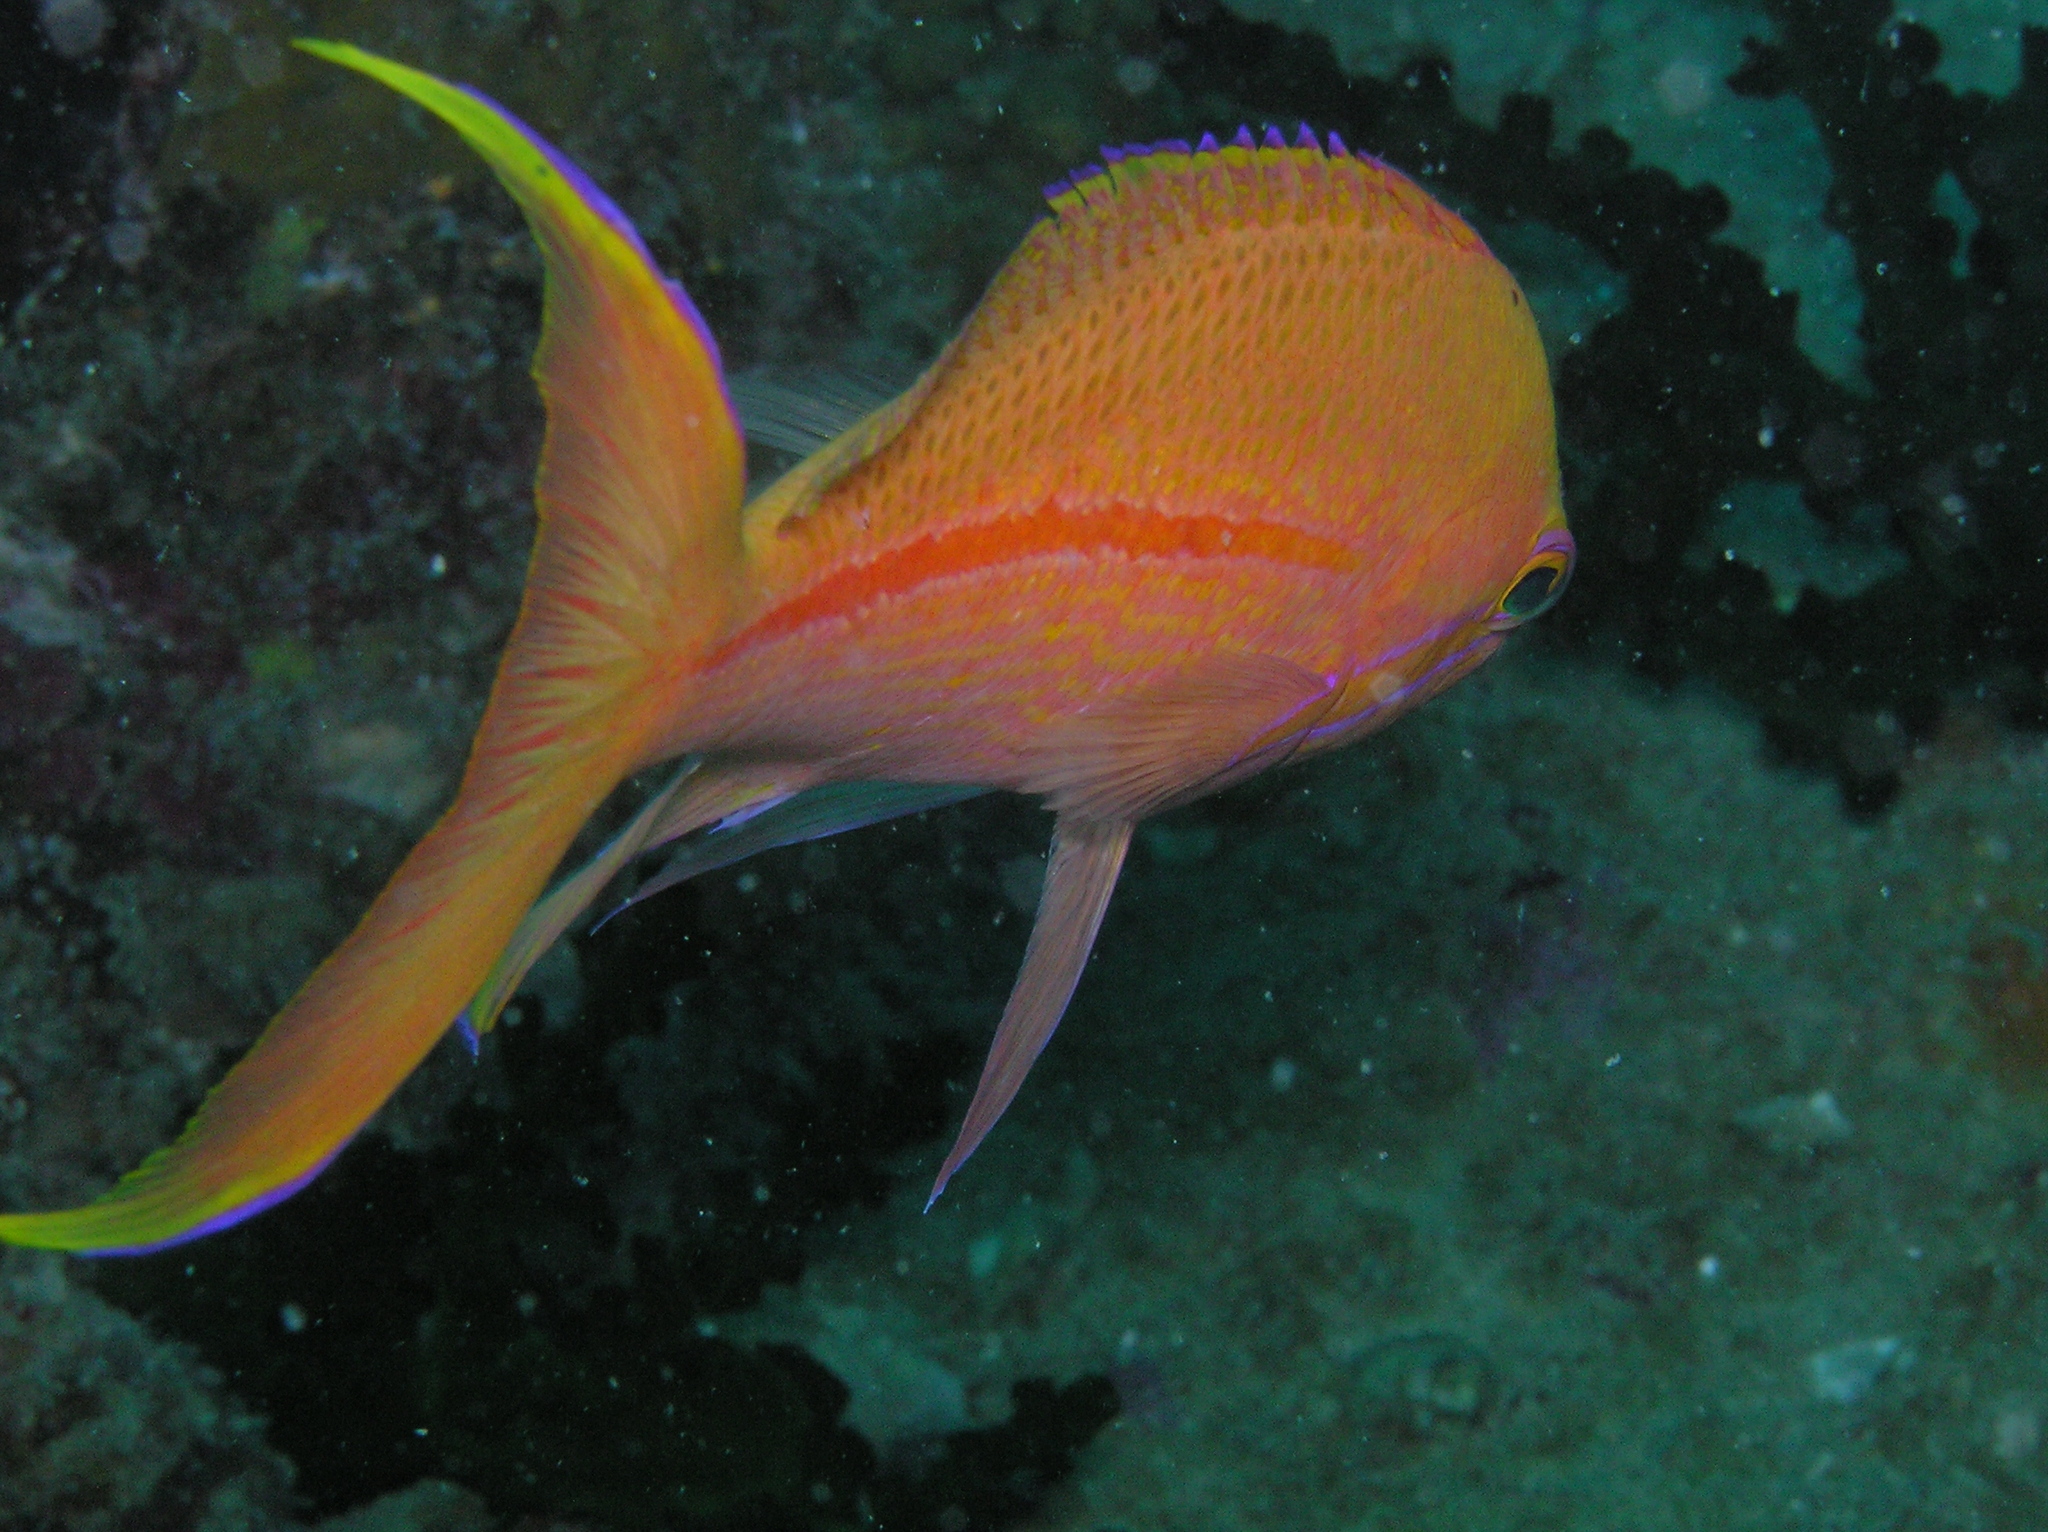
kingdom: Animalia
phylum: Chordata
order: Perciformes
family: Serranidae
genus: Pseudanthias
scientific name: Pseudanthias fasciatus
